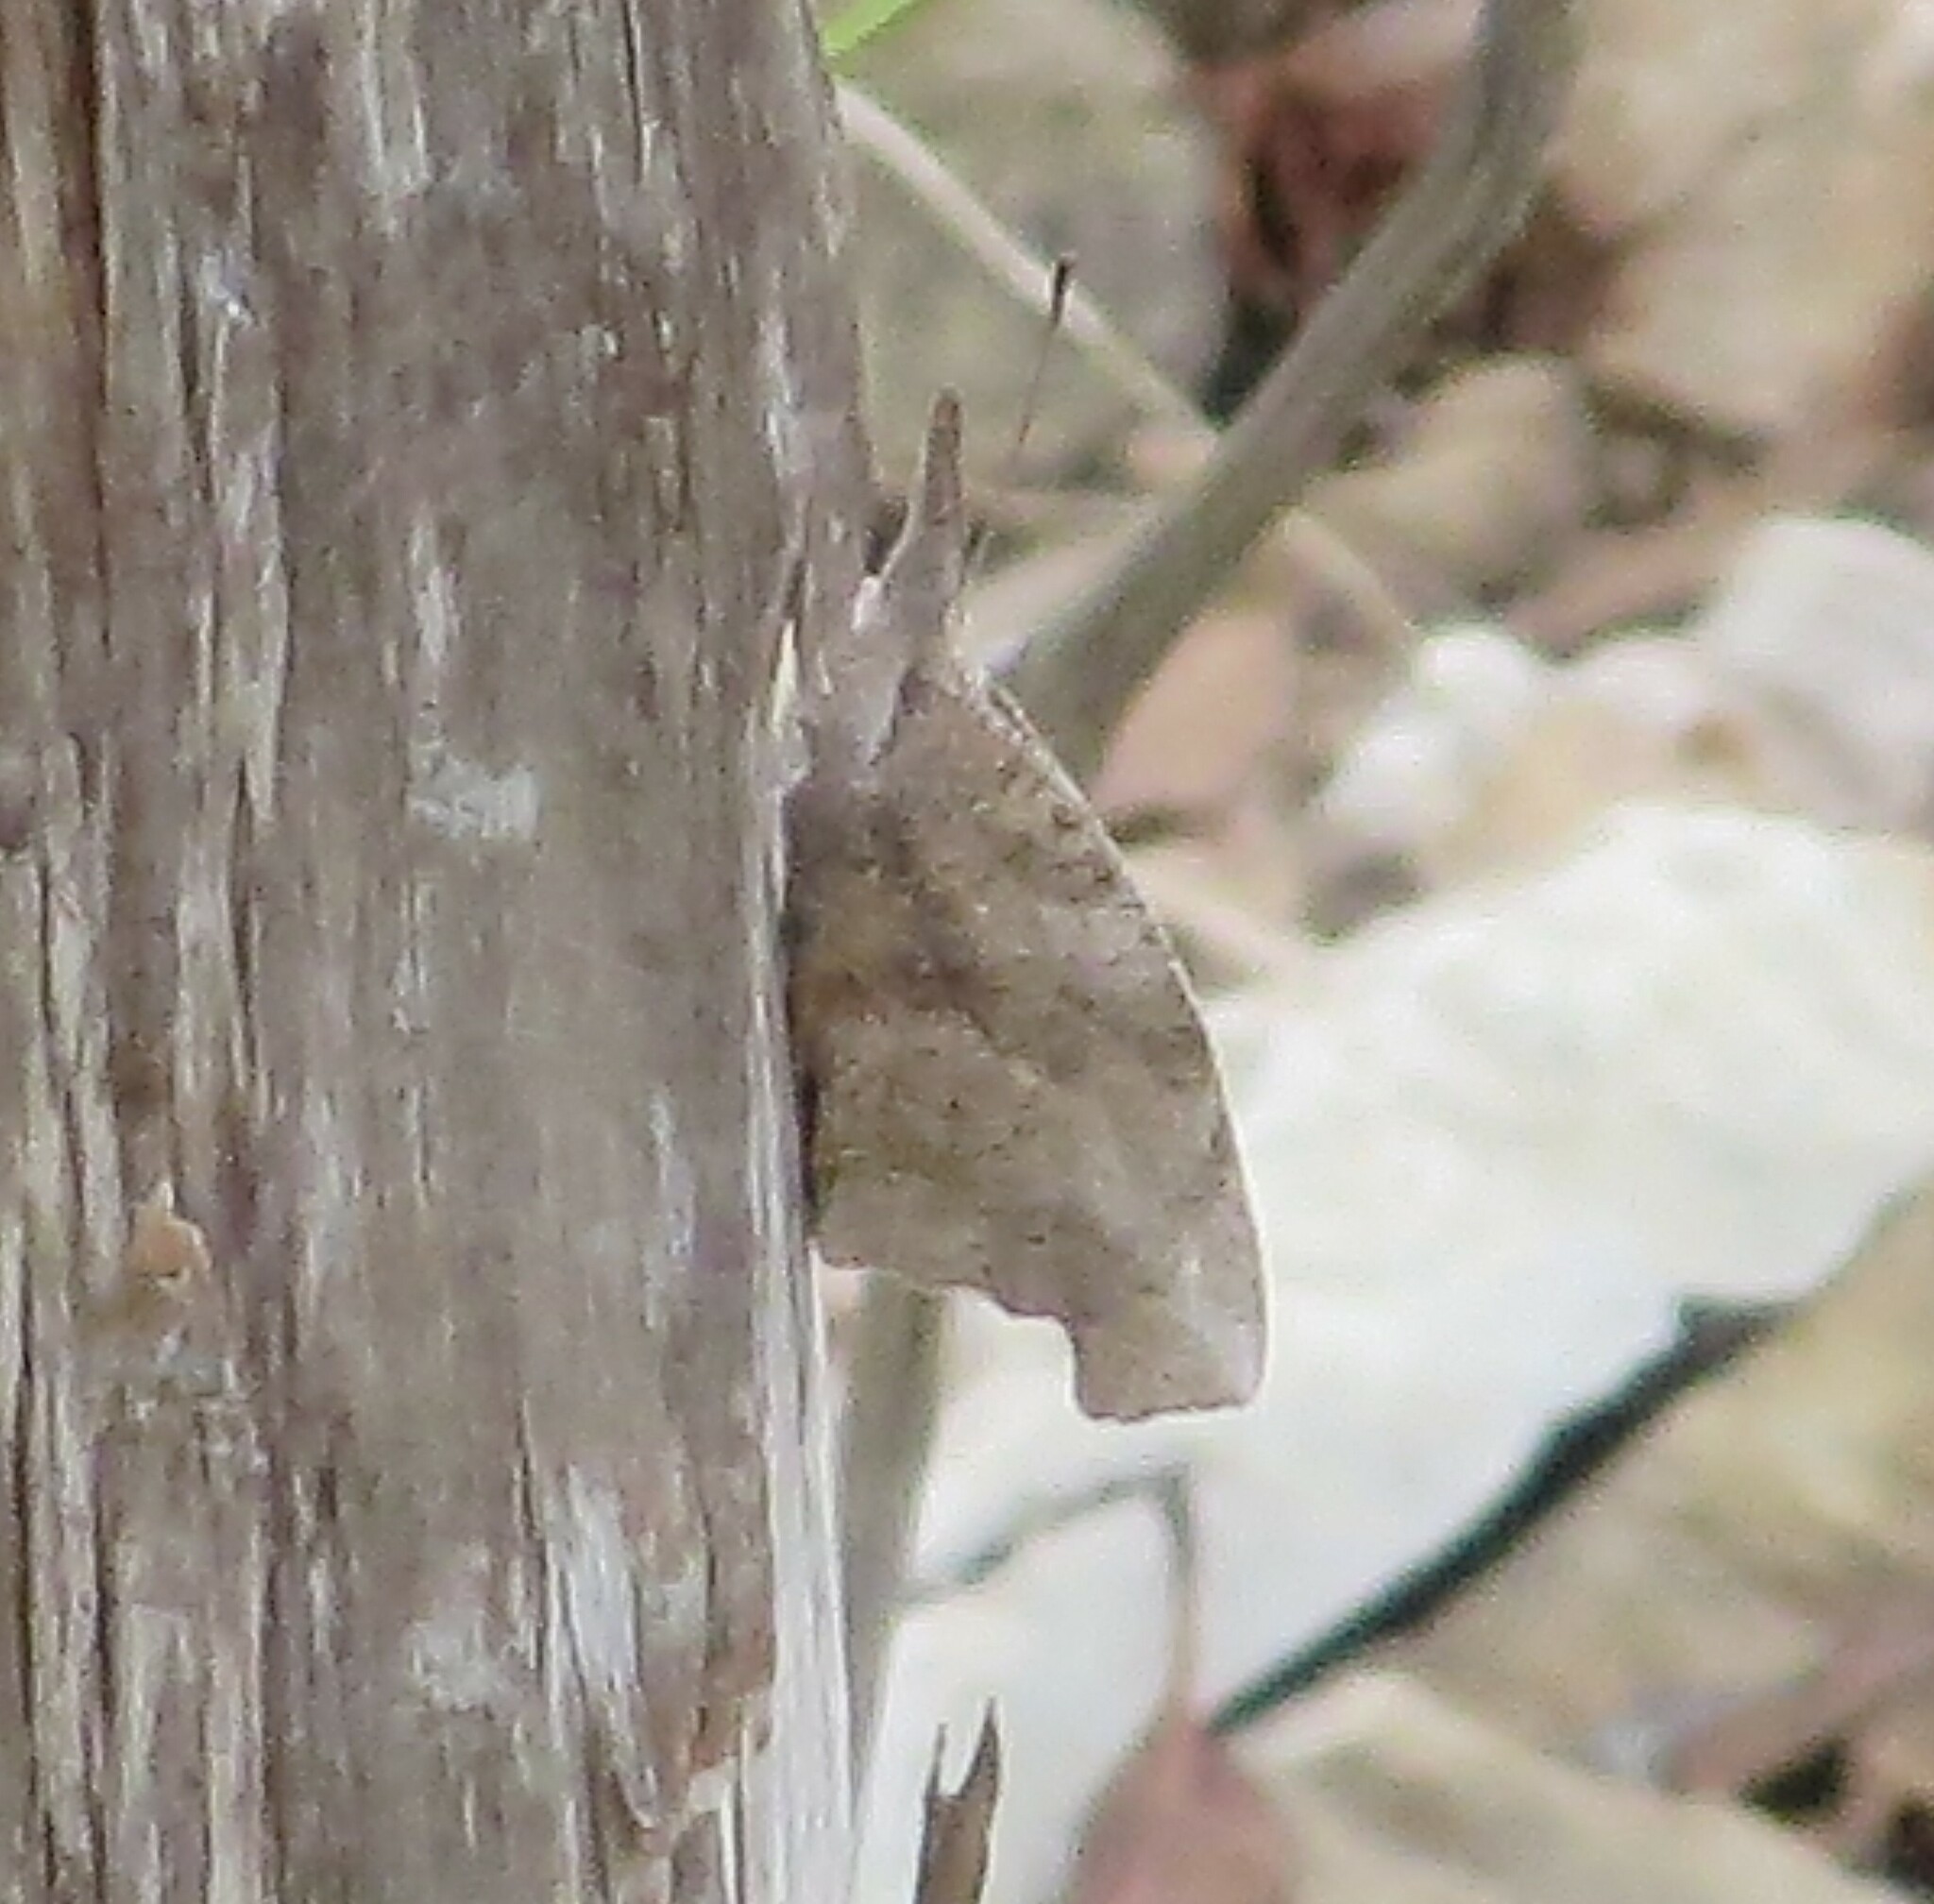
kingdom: Animalia
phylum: Arthropoda
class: Insecta
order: Lepidoptera
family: Nymphalidae
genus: Libytheana
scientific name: Libytheana carinenta
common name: American snout
